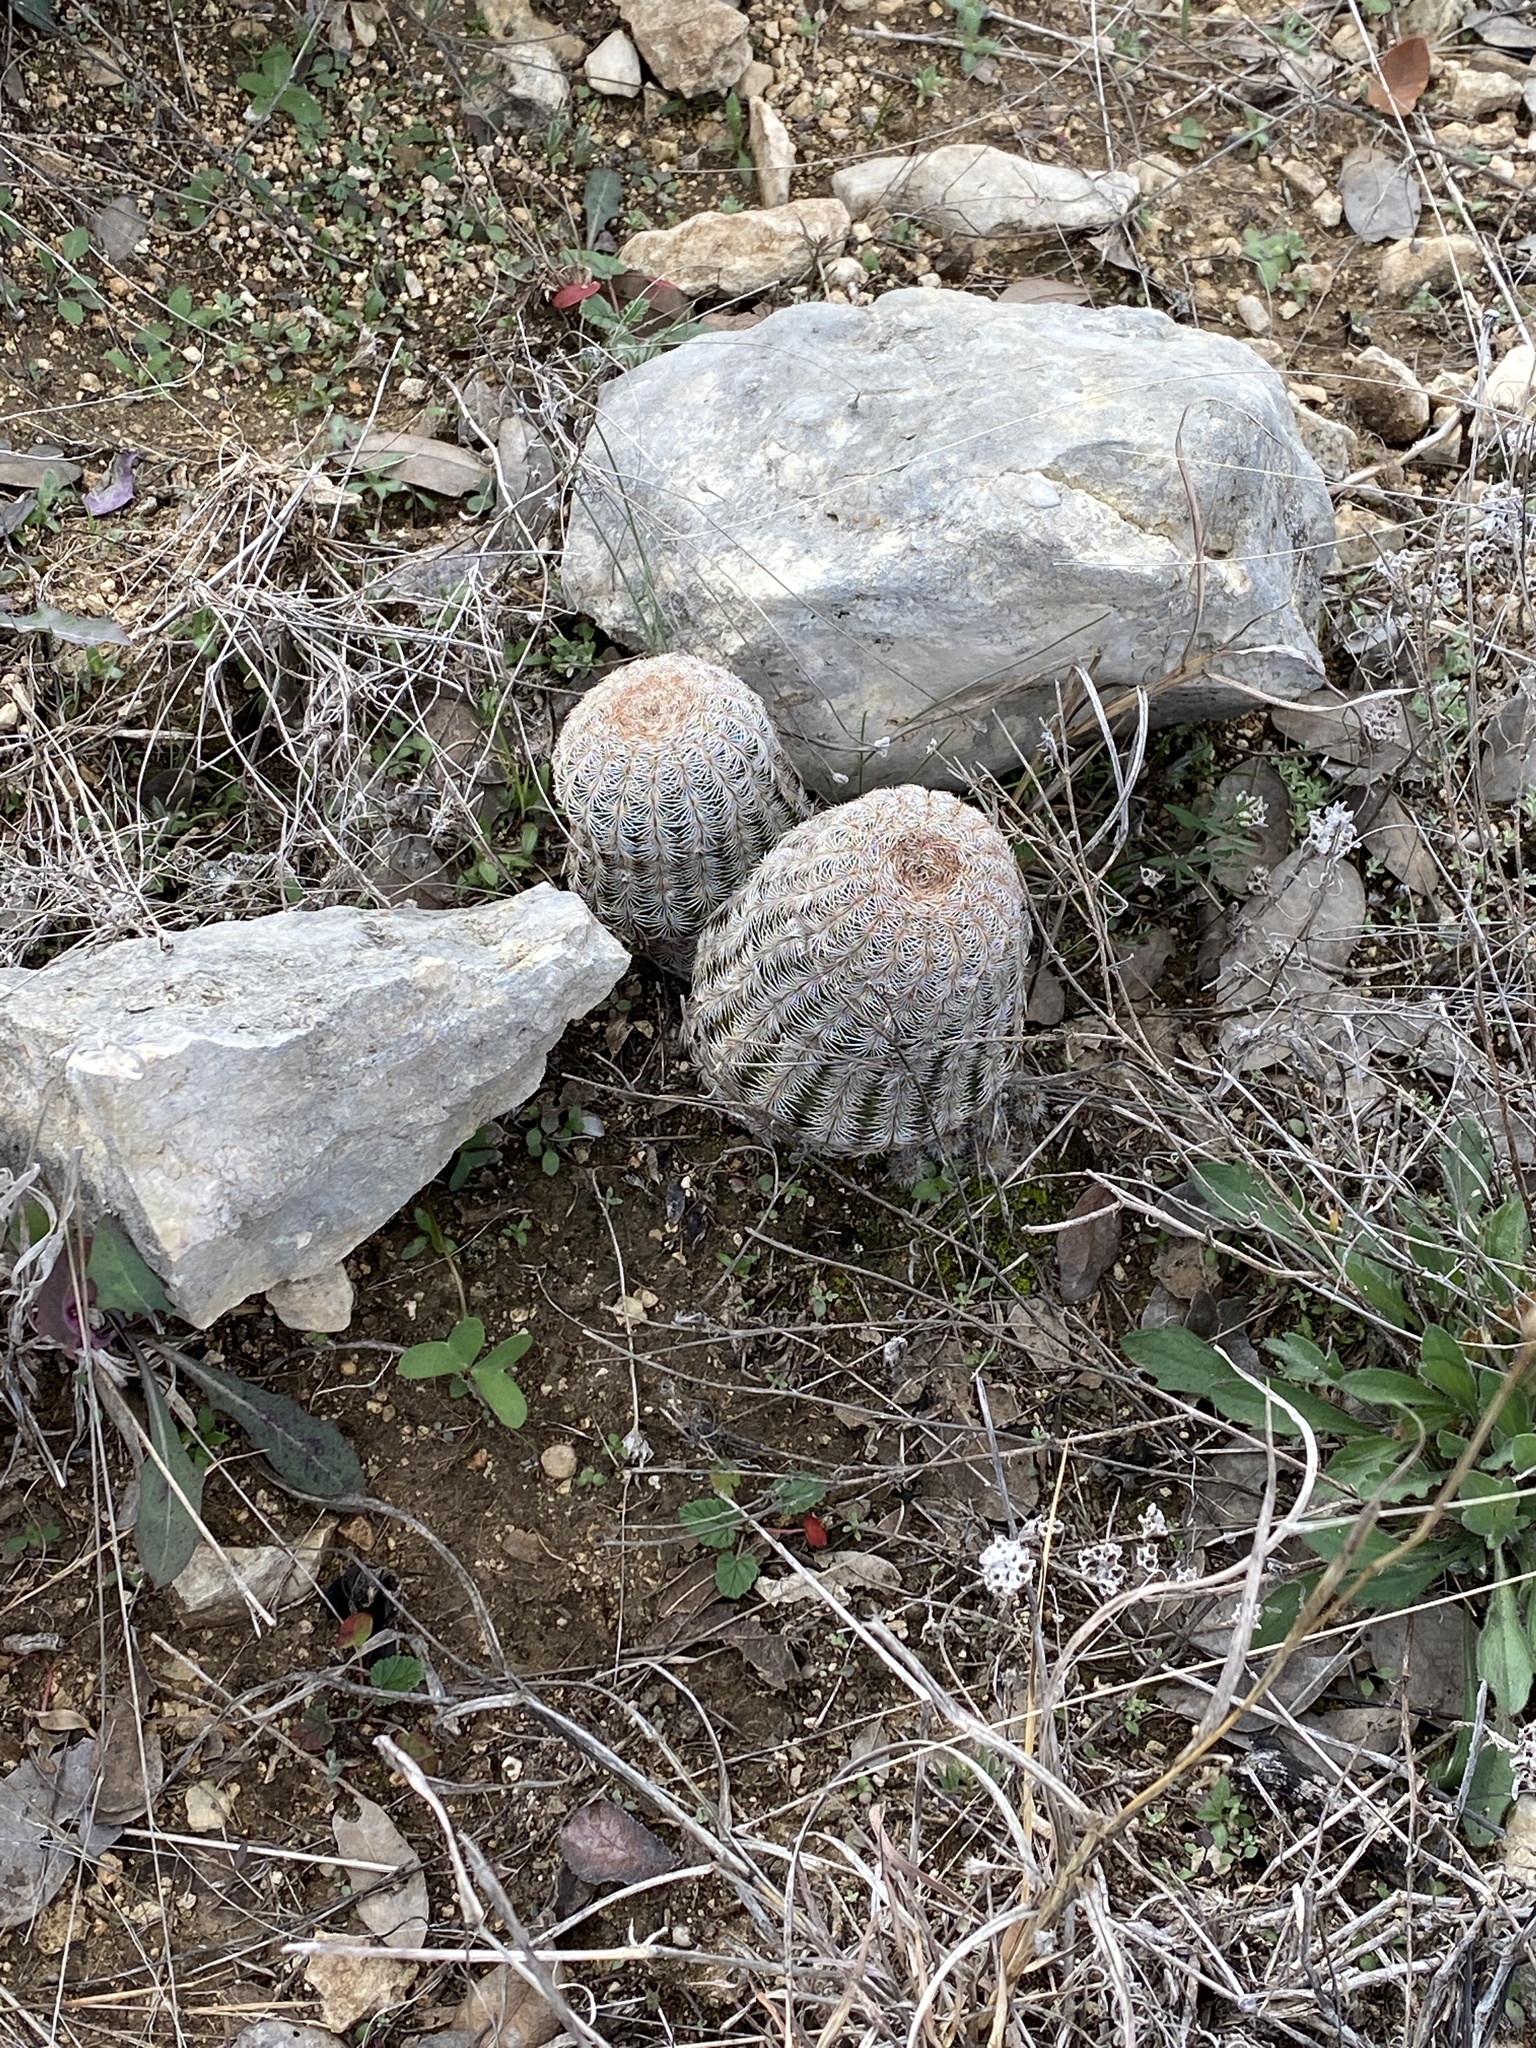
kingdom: Plantae
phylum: Tracheophyta
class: Magnoliopsida
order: Caryophyllales
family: Cactaceae
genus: Echinocereus
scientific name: Echinocereus reichenbachii
